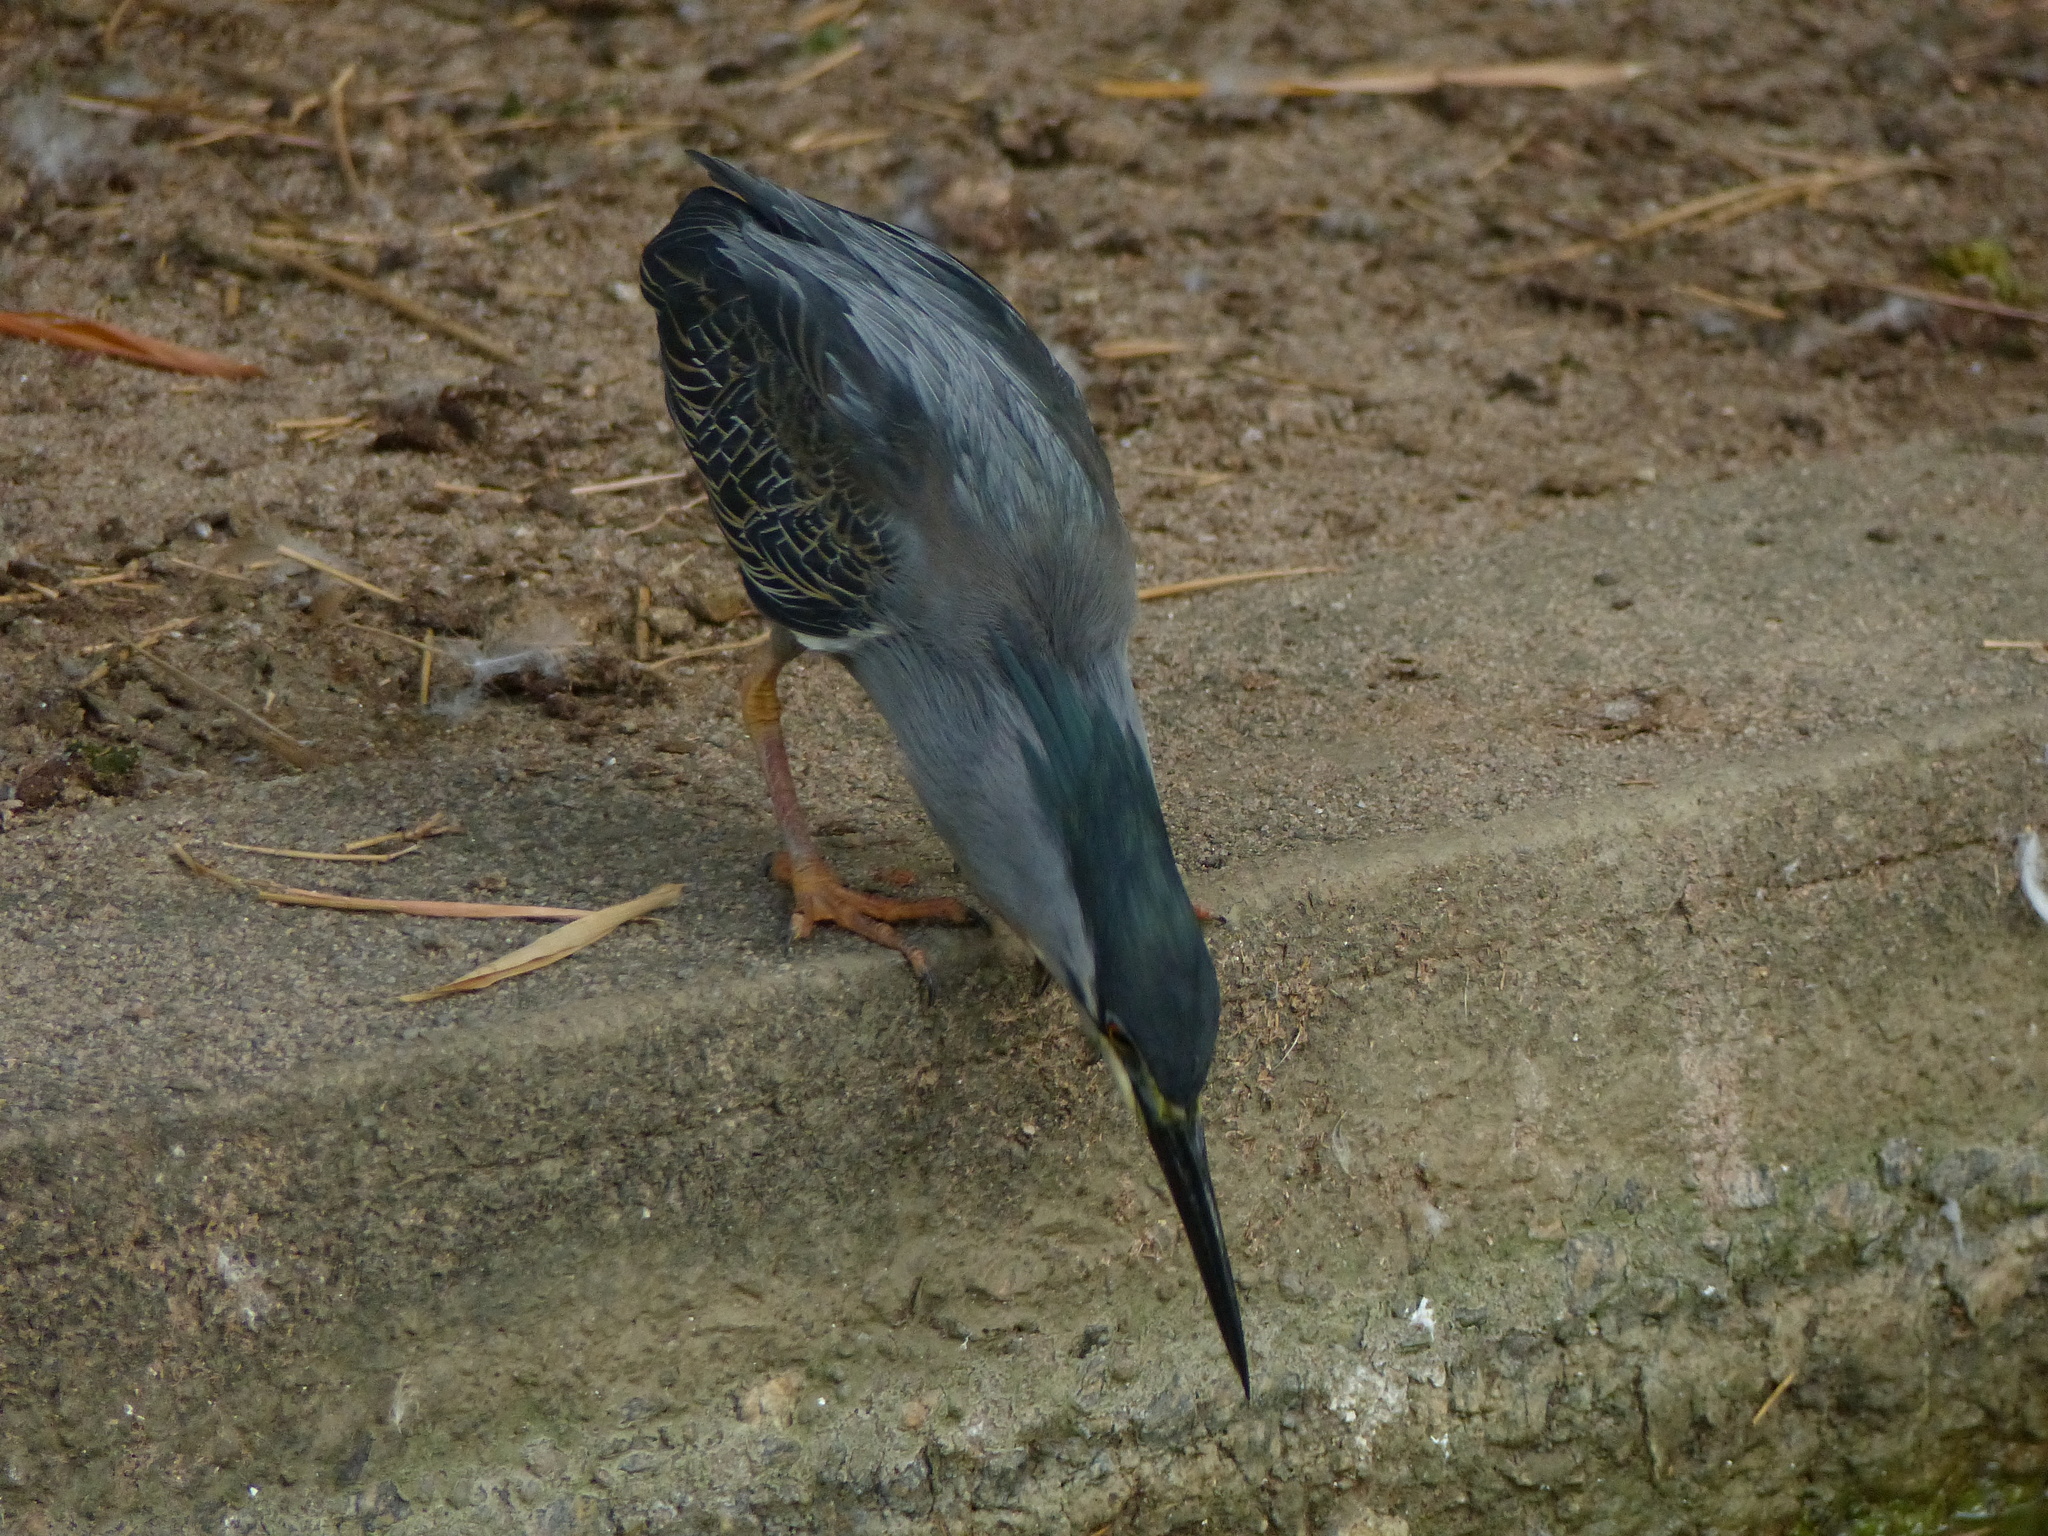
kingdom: Animalia
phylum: Chordata
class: Aves
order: Pelecaniformes
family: Ardeidae
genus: Butorides
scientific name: Butorides striata
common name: Striated heron
